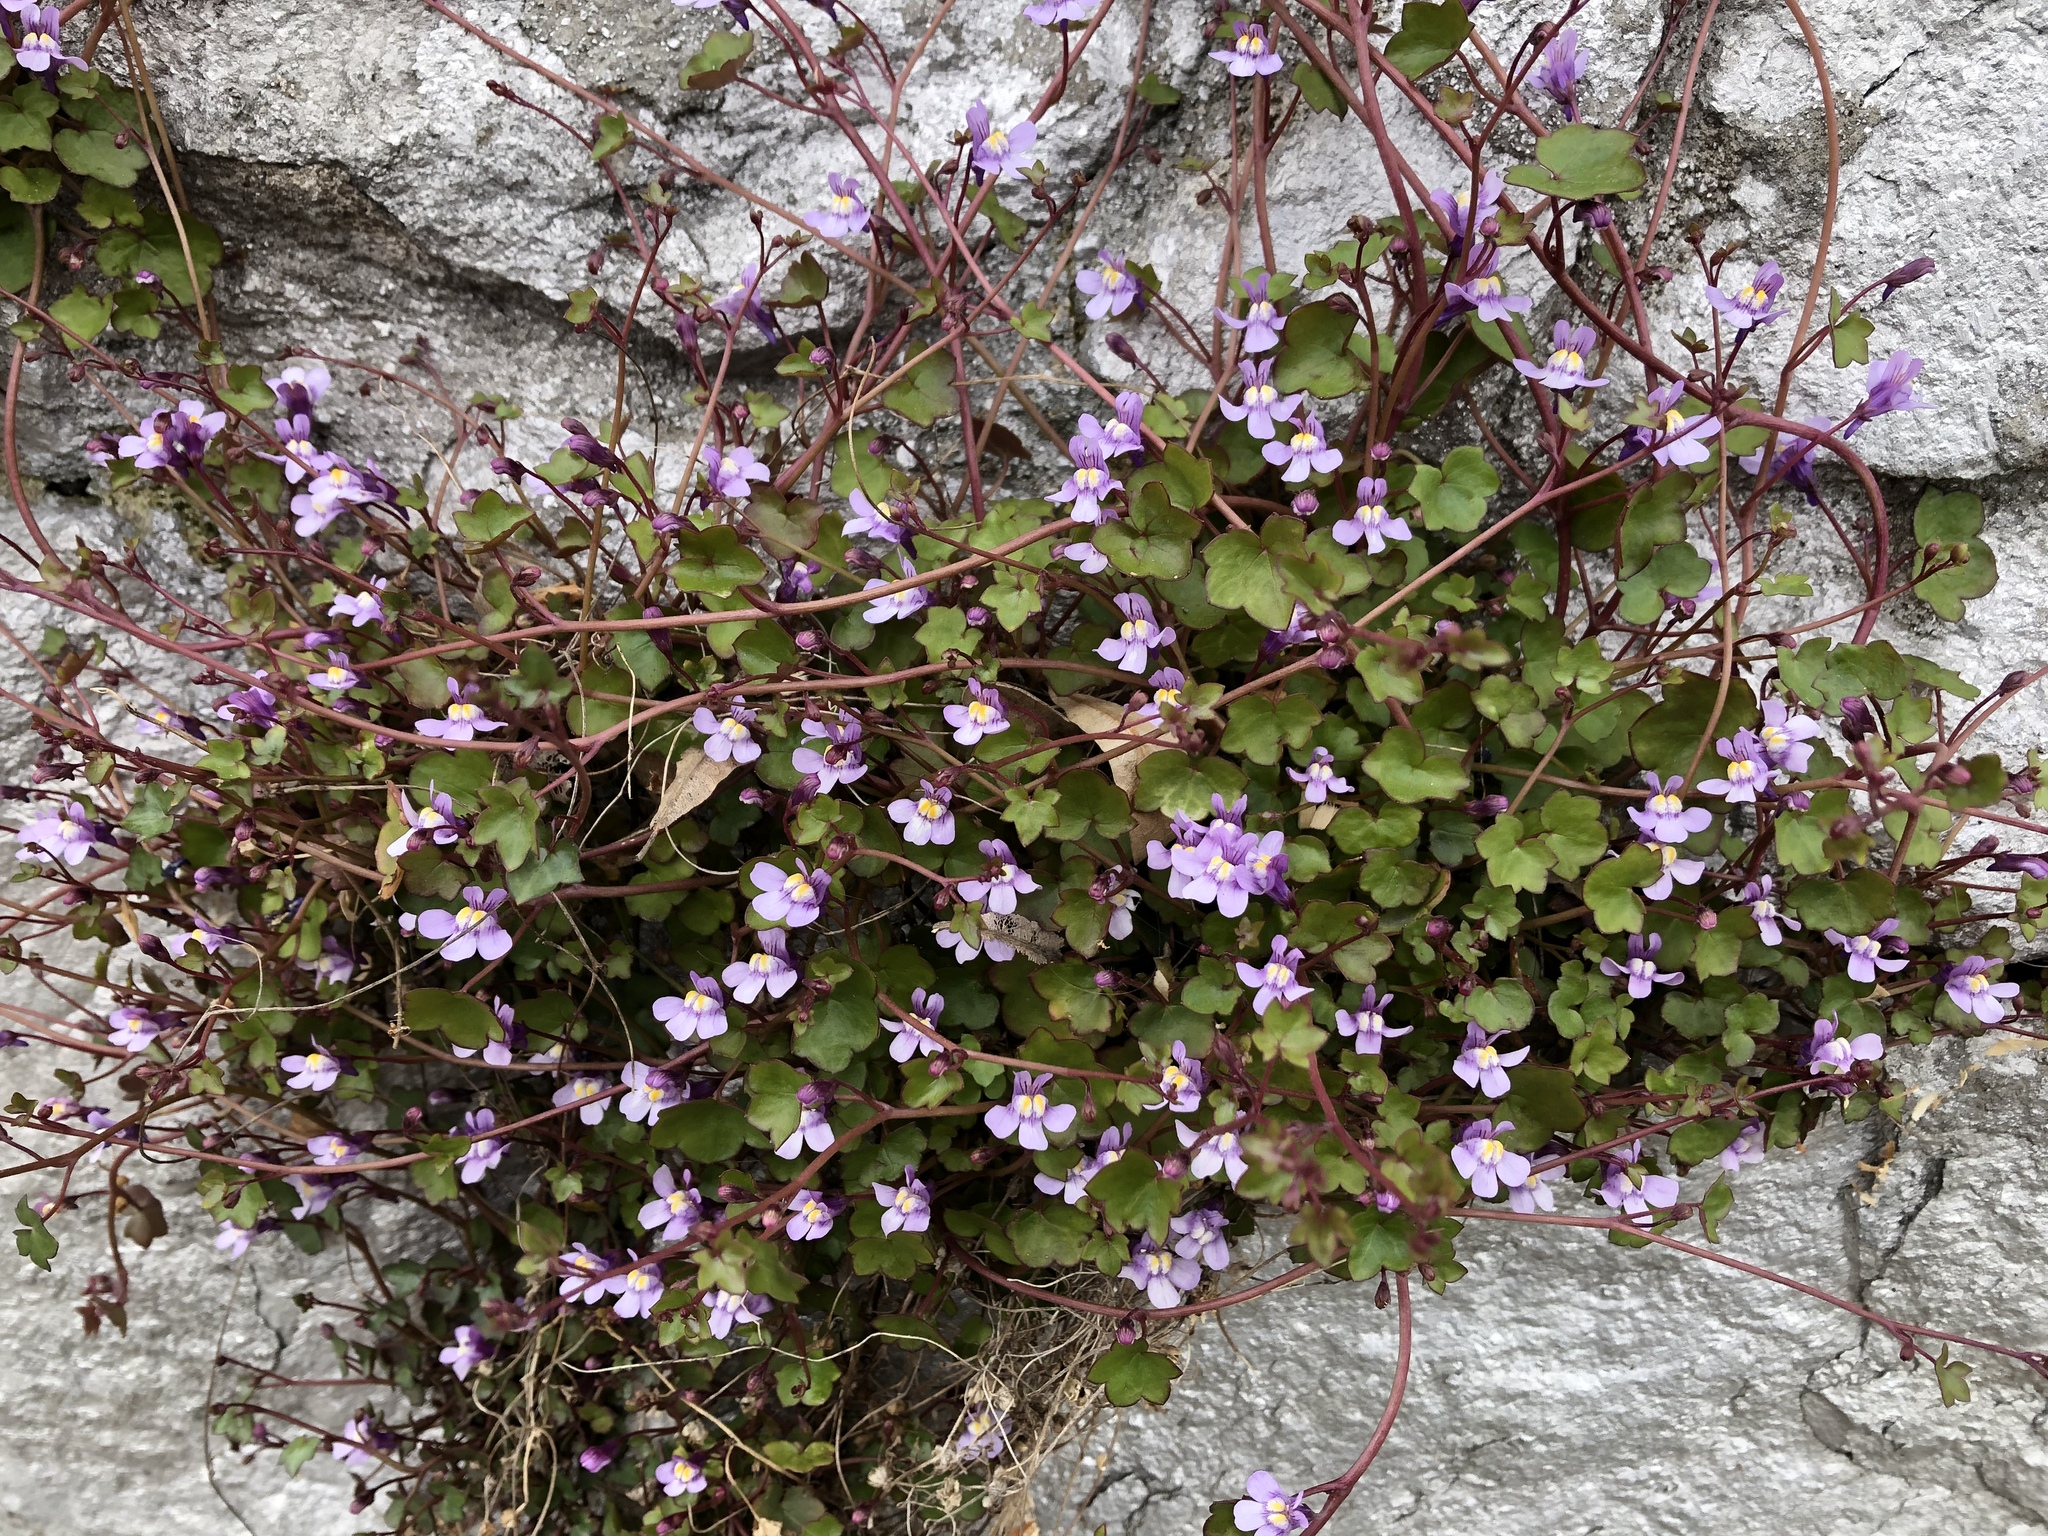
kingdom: Plantae
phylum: Tracheophyta
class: Magnoliopsida
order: Lamiales
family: Plantaginaceae
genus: Cymbalaria
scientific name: Cymbalaria muralis
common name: Ivy-leaved toadflax
